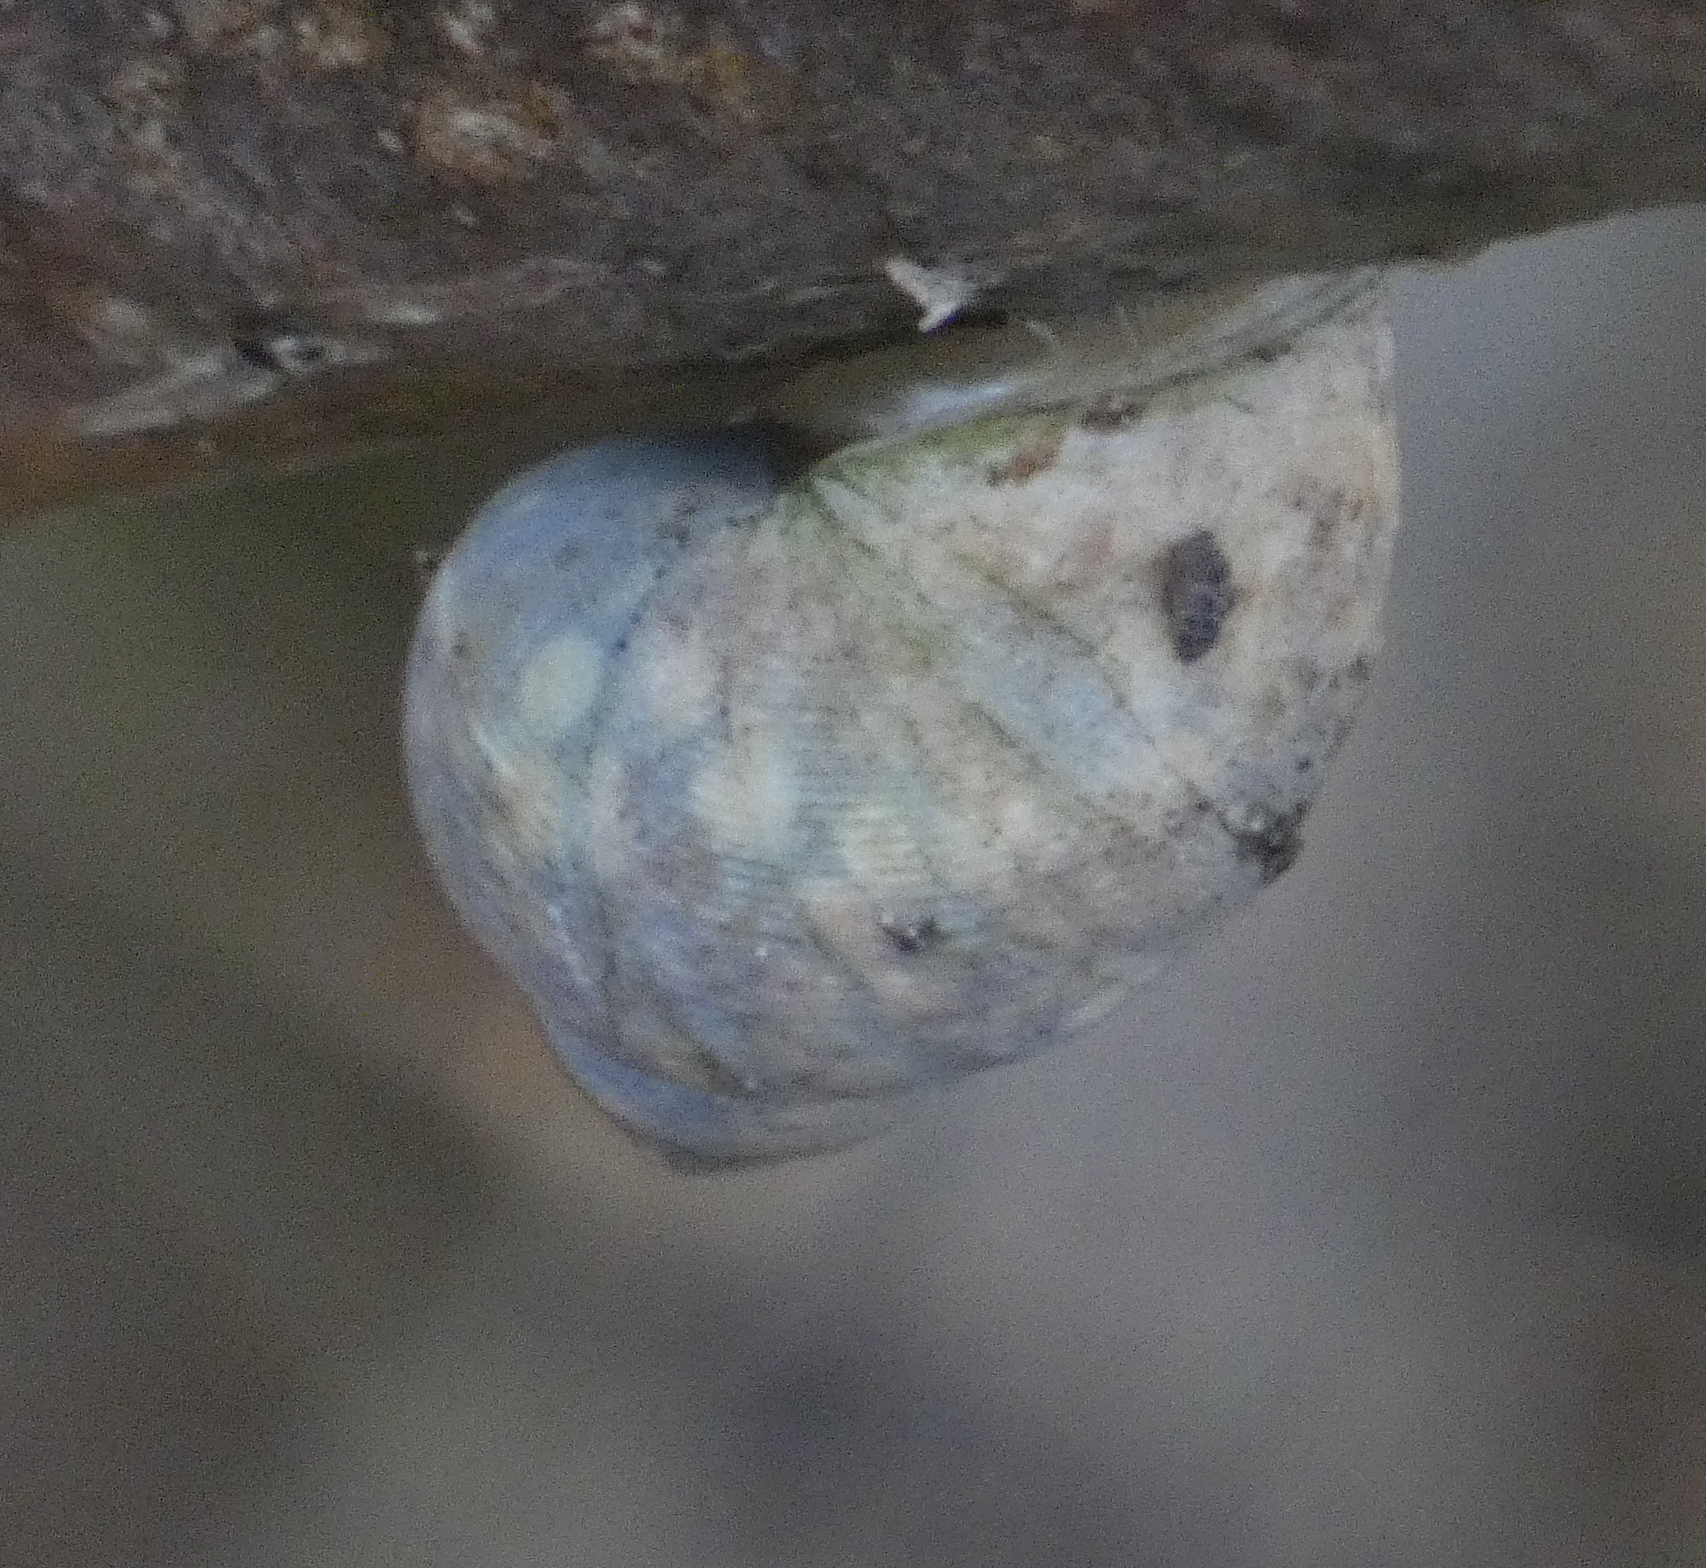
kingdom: Animalia
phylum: Mollusca
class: Gastropoda
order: Littorinimorpha
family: Littorinidae
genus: Littoraria
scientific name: Littoraria nebulosa
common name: Cloudy periwinkle
